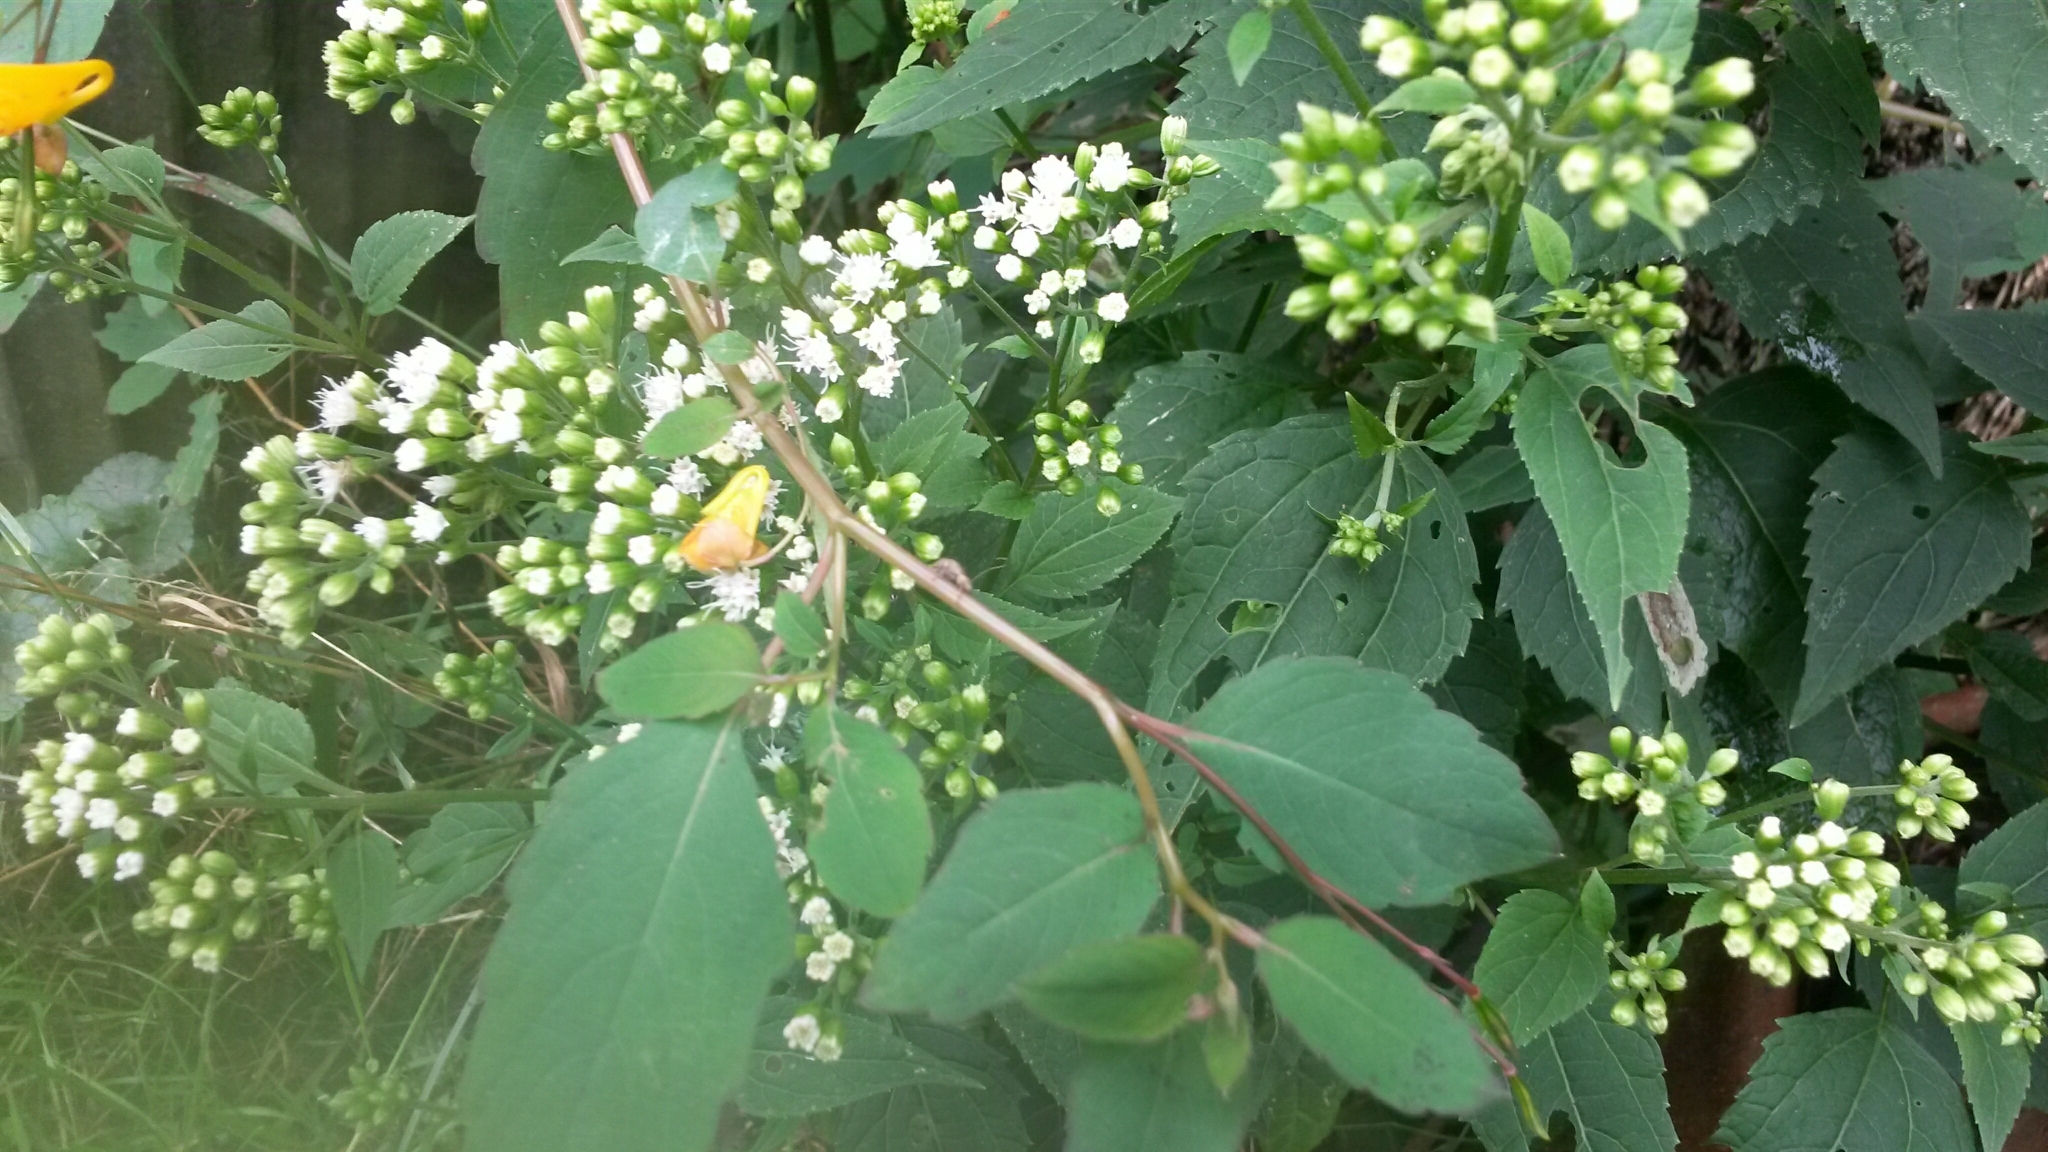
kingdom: Plantae
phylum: Tracheophyta
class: Magnoliopsida
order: Asterales
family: Asteraceae
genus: Ageratina
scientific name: Ageratina altissima
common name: White snakeroot
